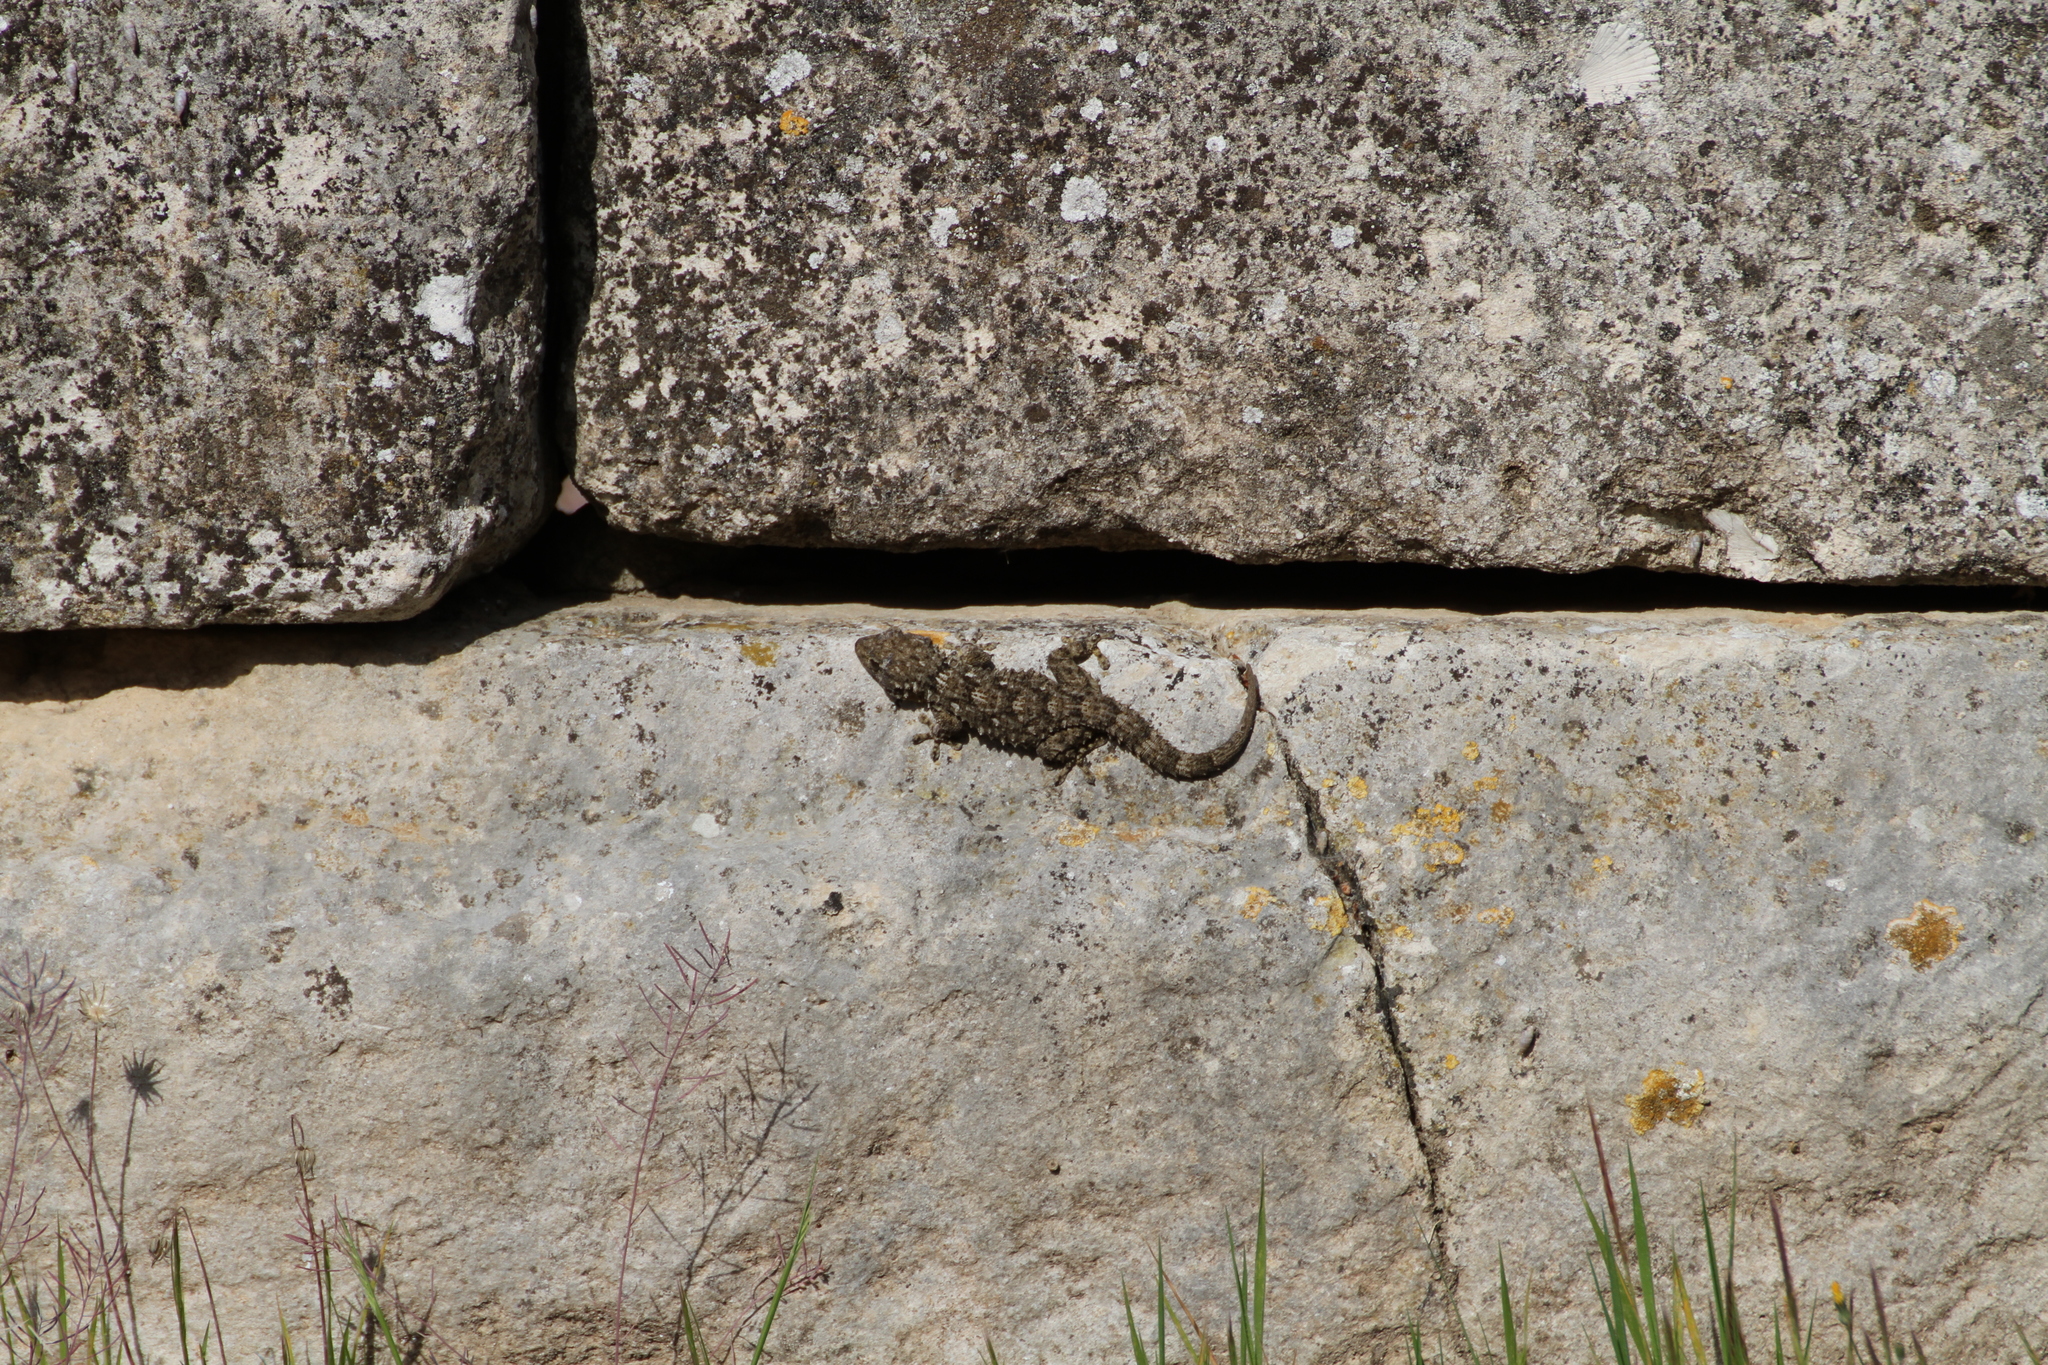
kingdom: Animalia
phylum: Chordata
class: Squamata
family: Phyllodactylidae
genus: Tarentola
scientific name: Tarentola mauritanica
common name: Moorish gecko
